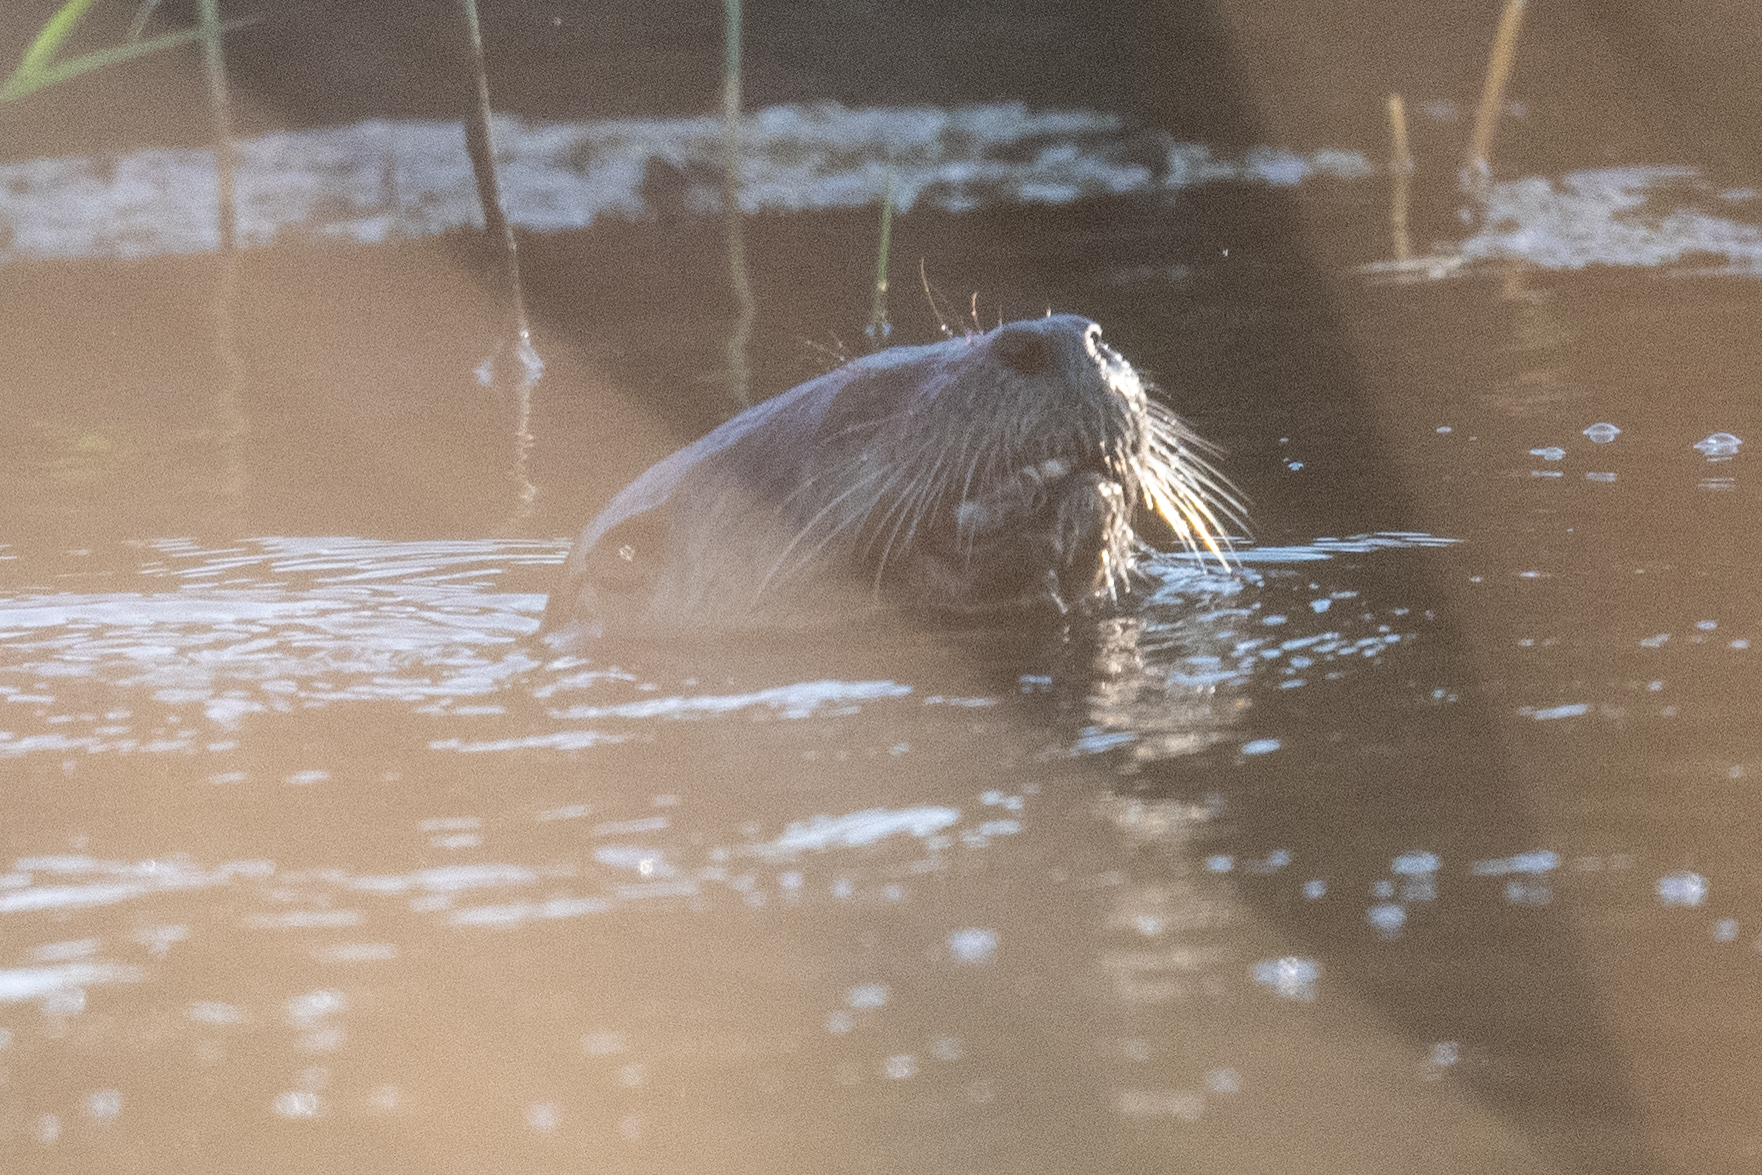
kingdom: Animalia
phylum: Chordata
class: Mammalia
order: Carnivora
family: Mustelidae
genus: Lontra
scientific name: Lontra canadensis
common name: North american river otter
